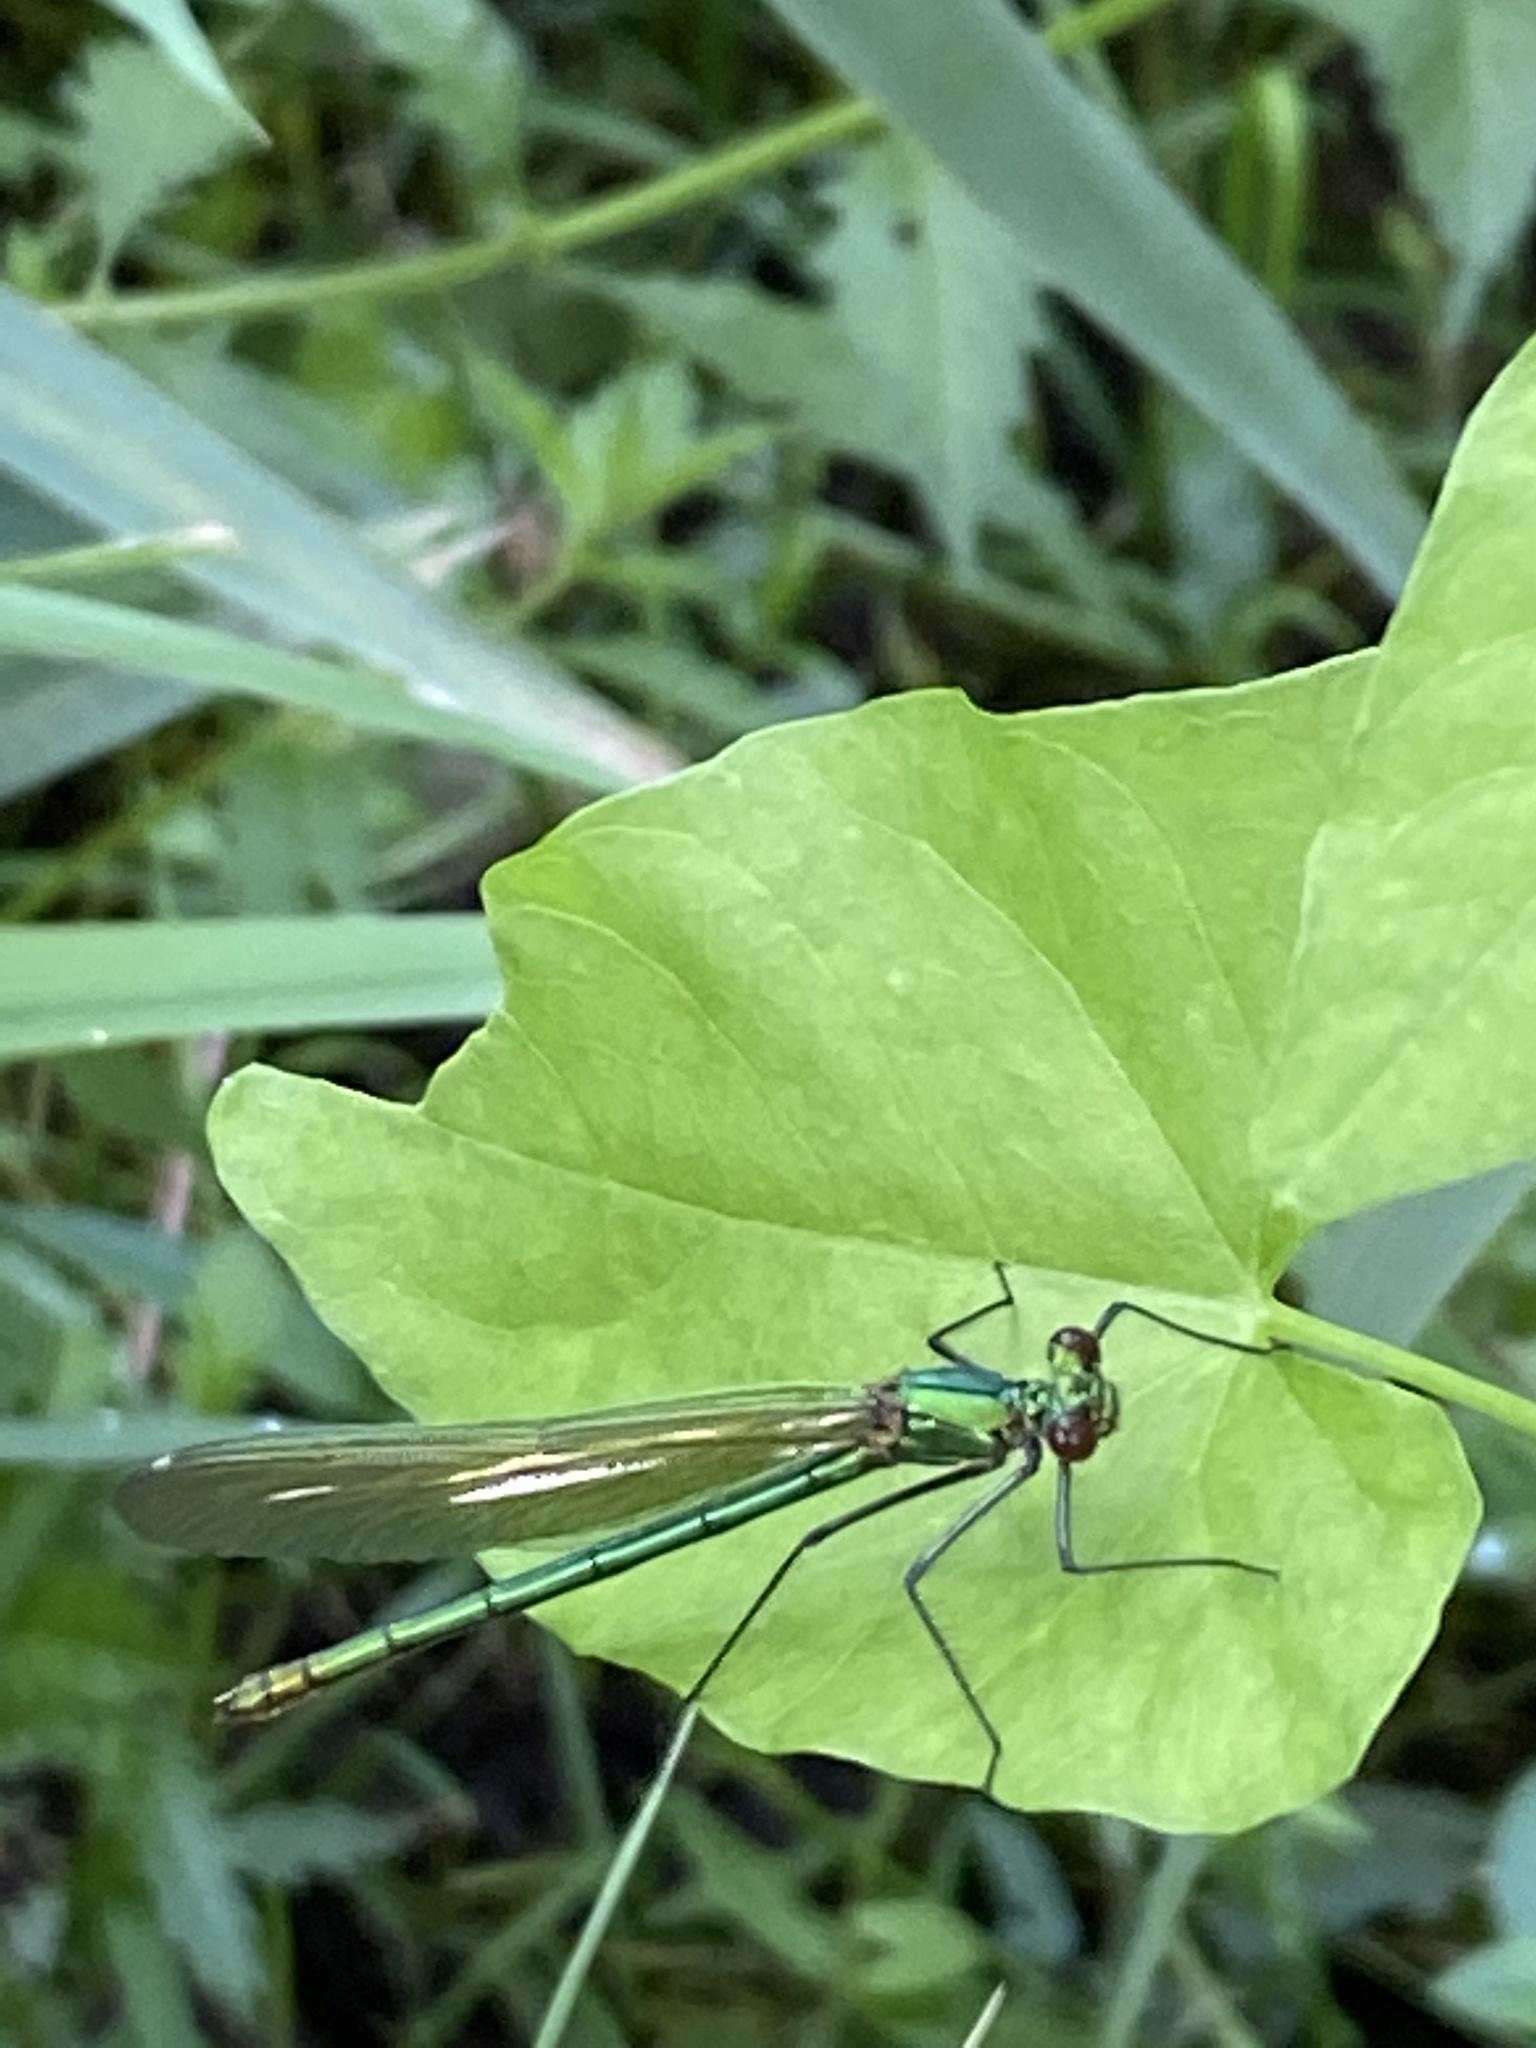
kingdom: Animalia
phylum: Arthropoda
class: Insecta
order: Odonata
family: Calopterygidae
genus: Calopteryx
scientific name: Calopteryx splendens
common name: Banded demoiselle
